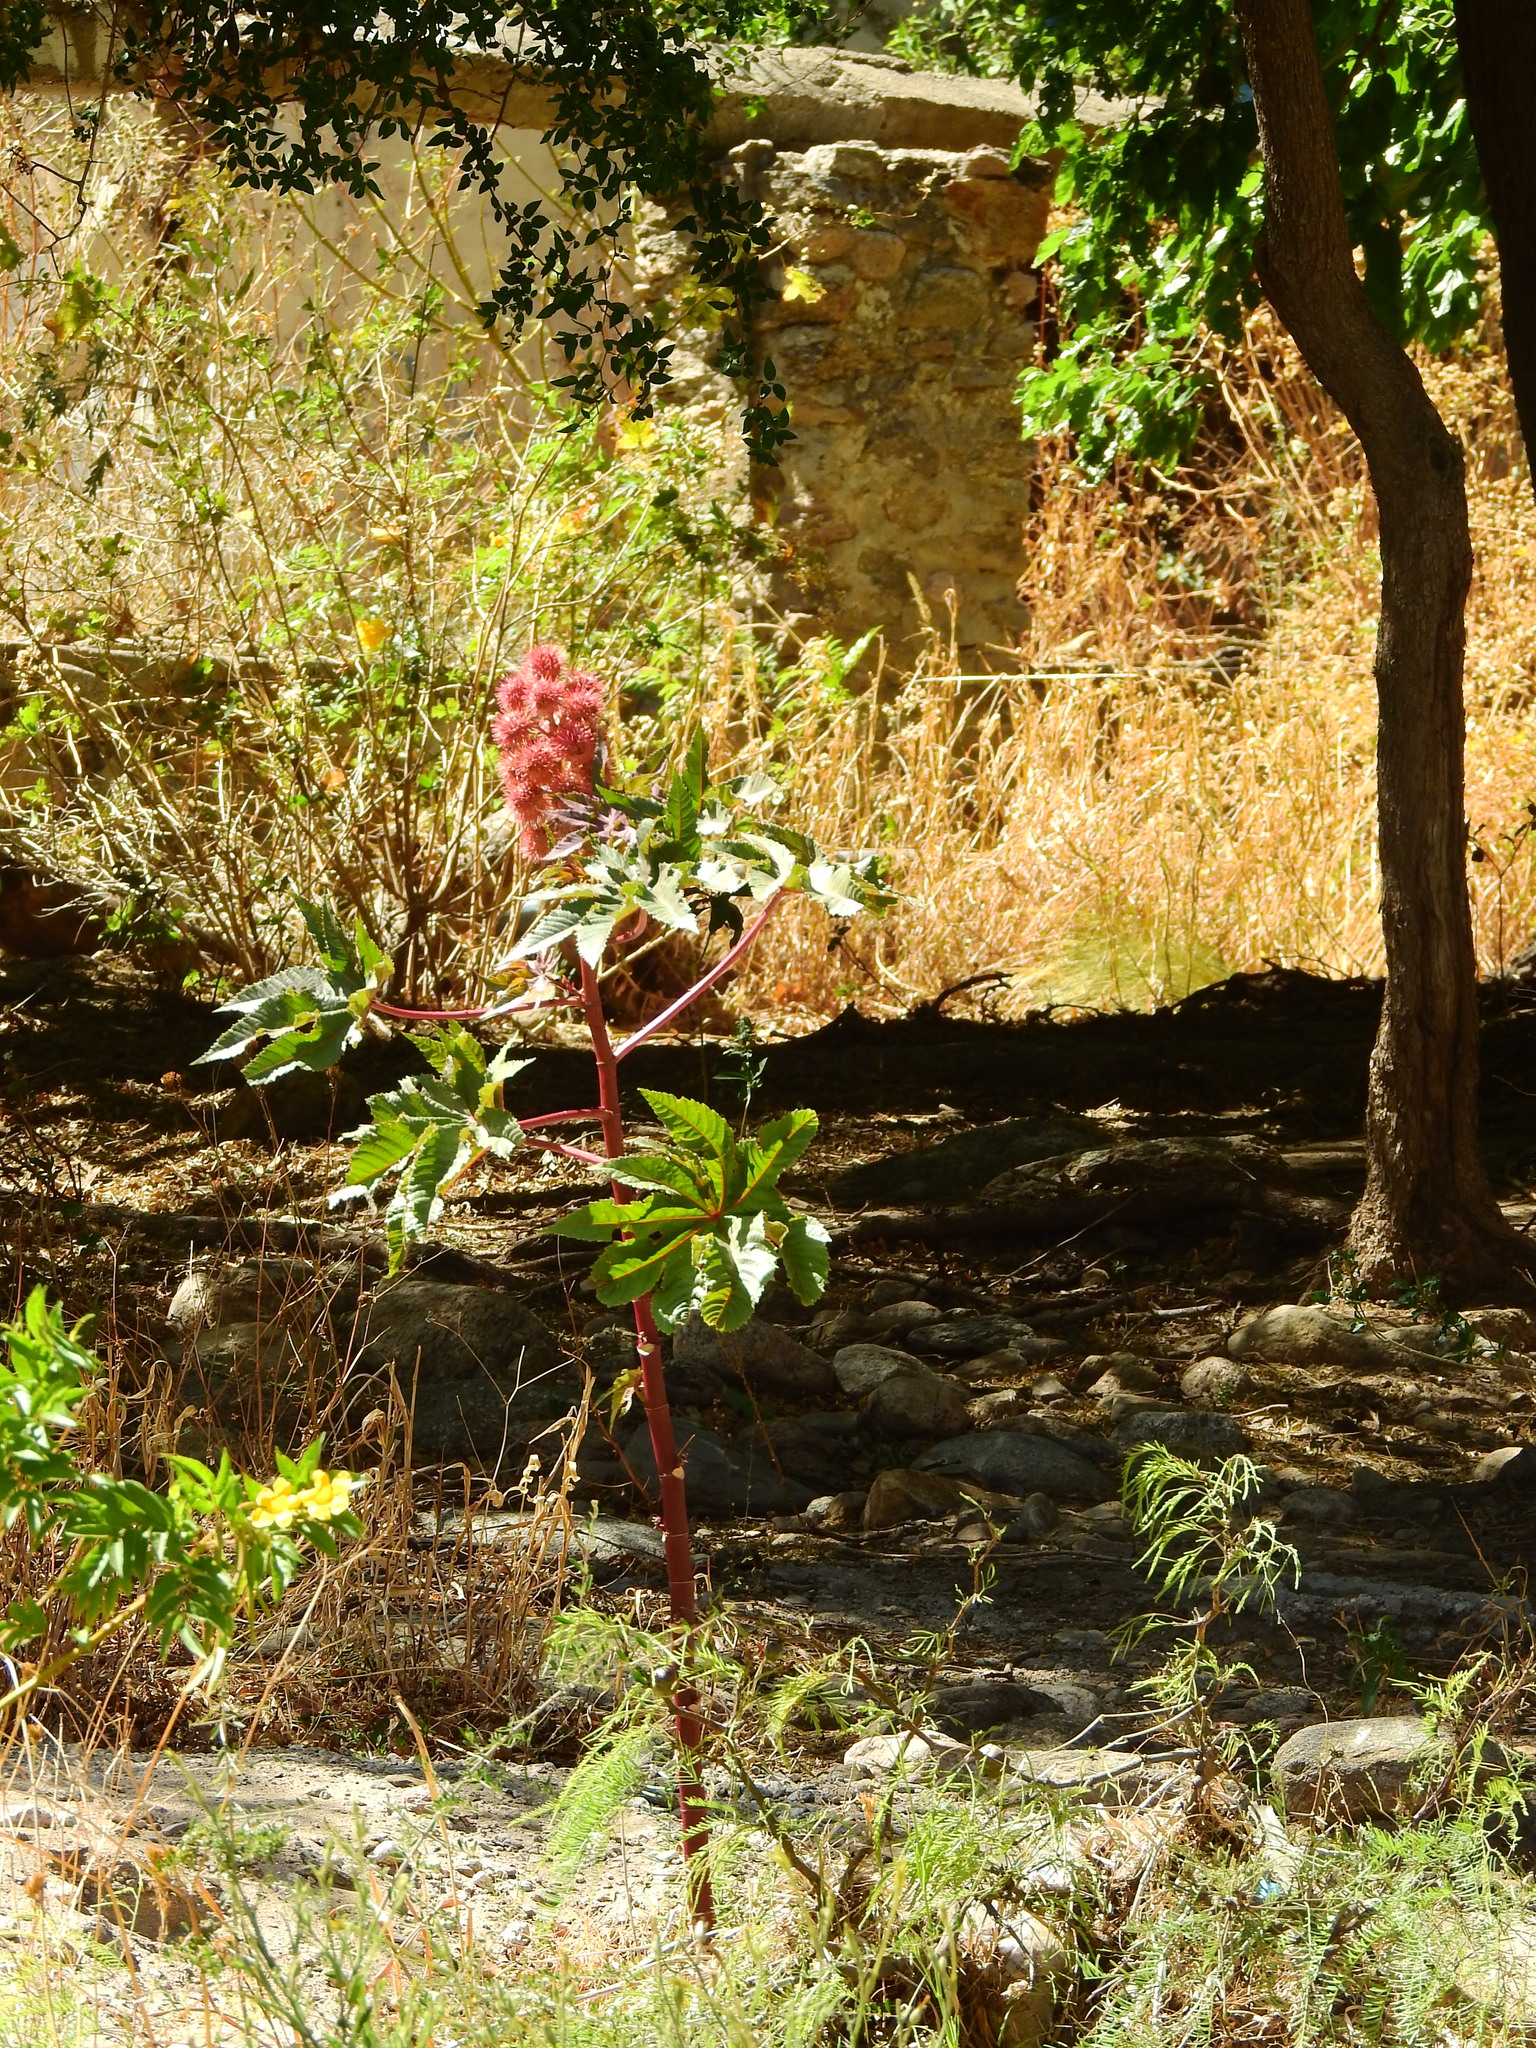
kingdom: Plantae
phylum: Tracheophyta
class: Magnoliopsida
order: Malpighiales
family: Euphorbiaceae
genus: Ricinus
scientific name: Ricinus communis
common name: Castor-oil-plant
